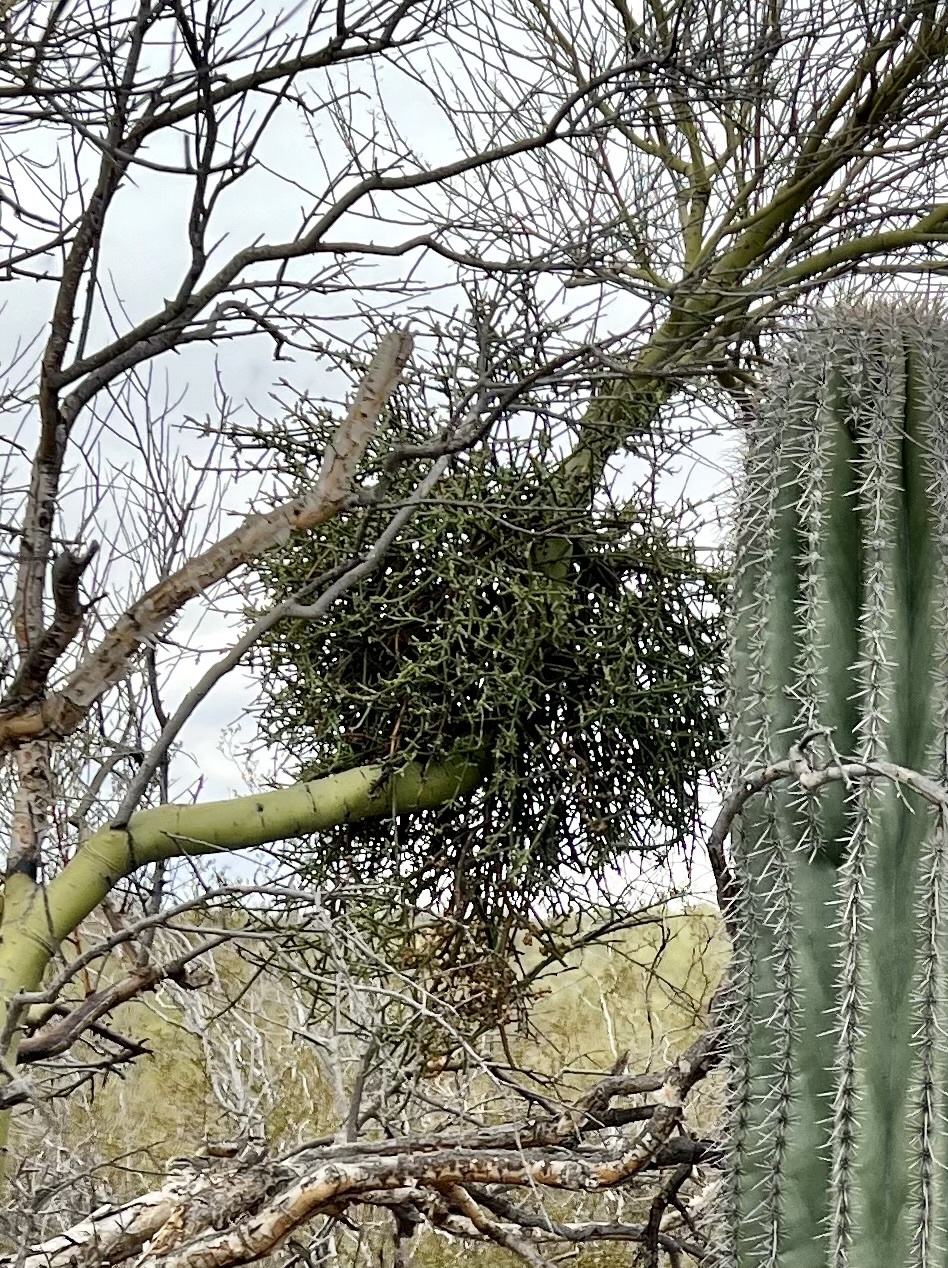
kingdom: Plantae
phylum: Tracheophyta
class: Magnoliopsida
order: Santalales
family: Viscaceae
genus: Phoradendron
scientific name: Phoradendron californicum
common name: Acacia mistletoe
